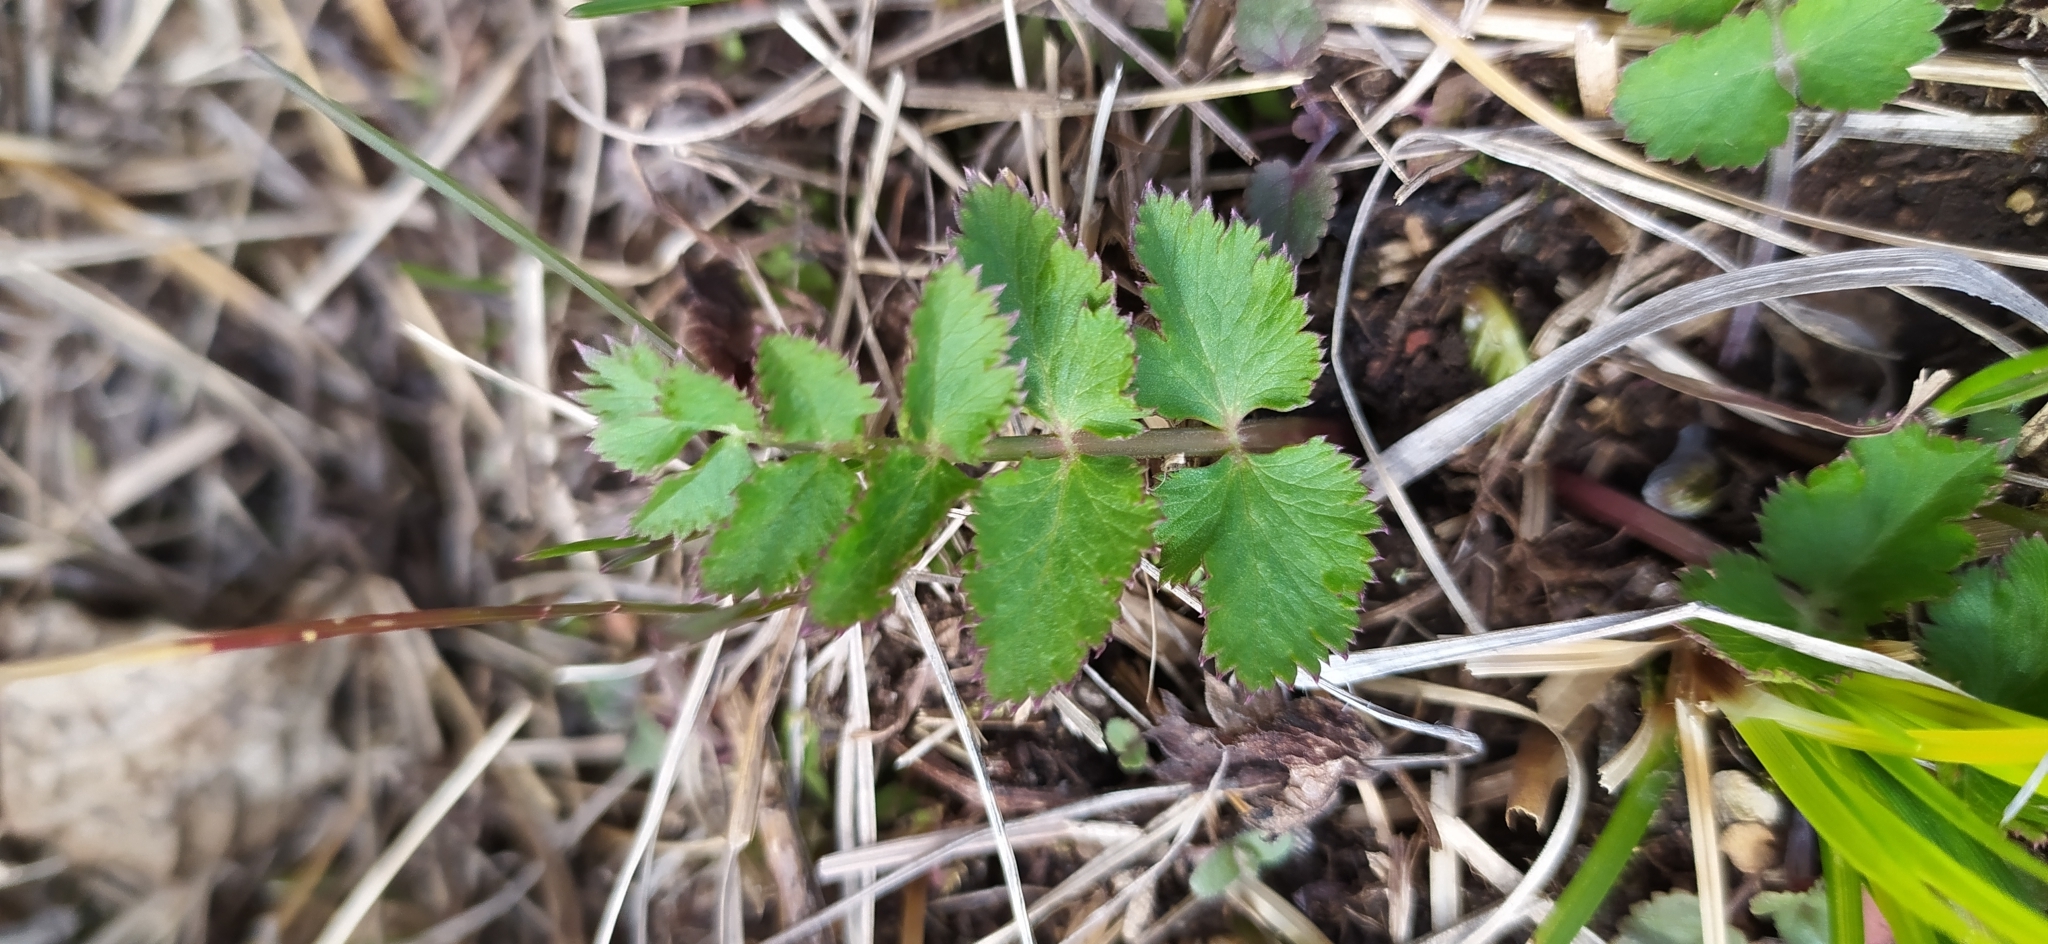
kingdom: Plantae
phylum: Tracheophyta
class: Magnoliopsida
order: Apiales
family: Apiaceae
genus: Pimpinella
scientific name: Pimpinella saxifraga
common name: Burnet-saxifrage
